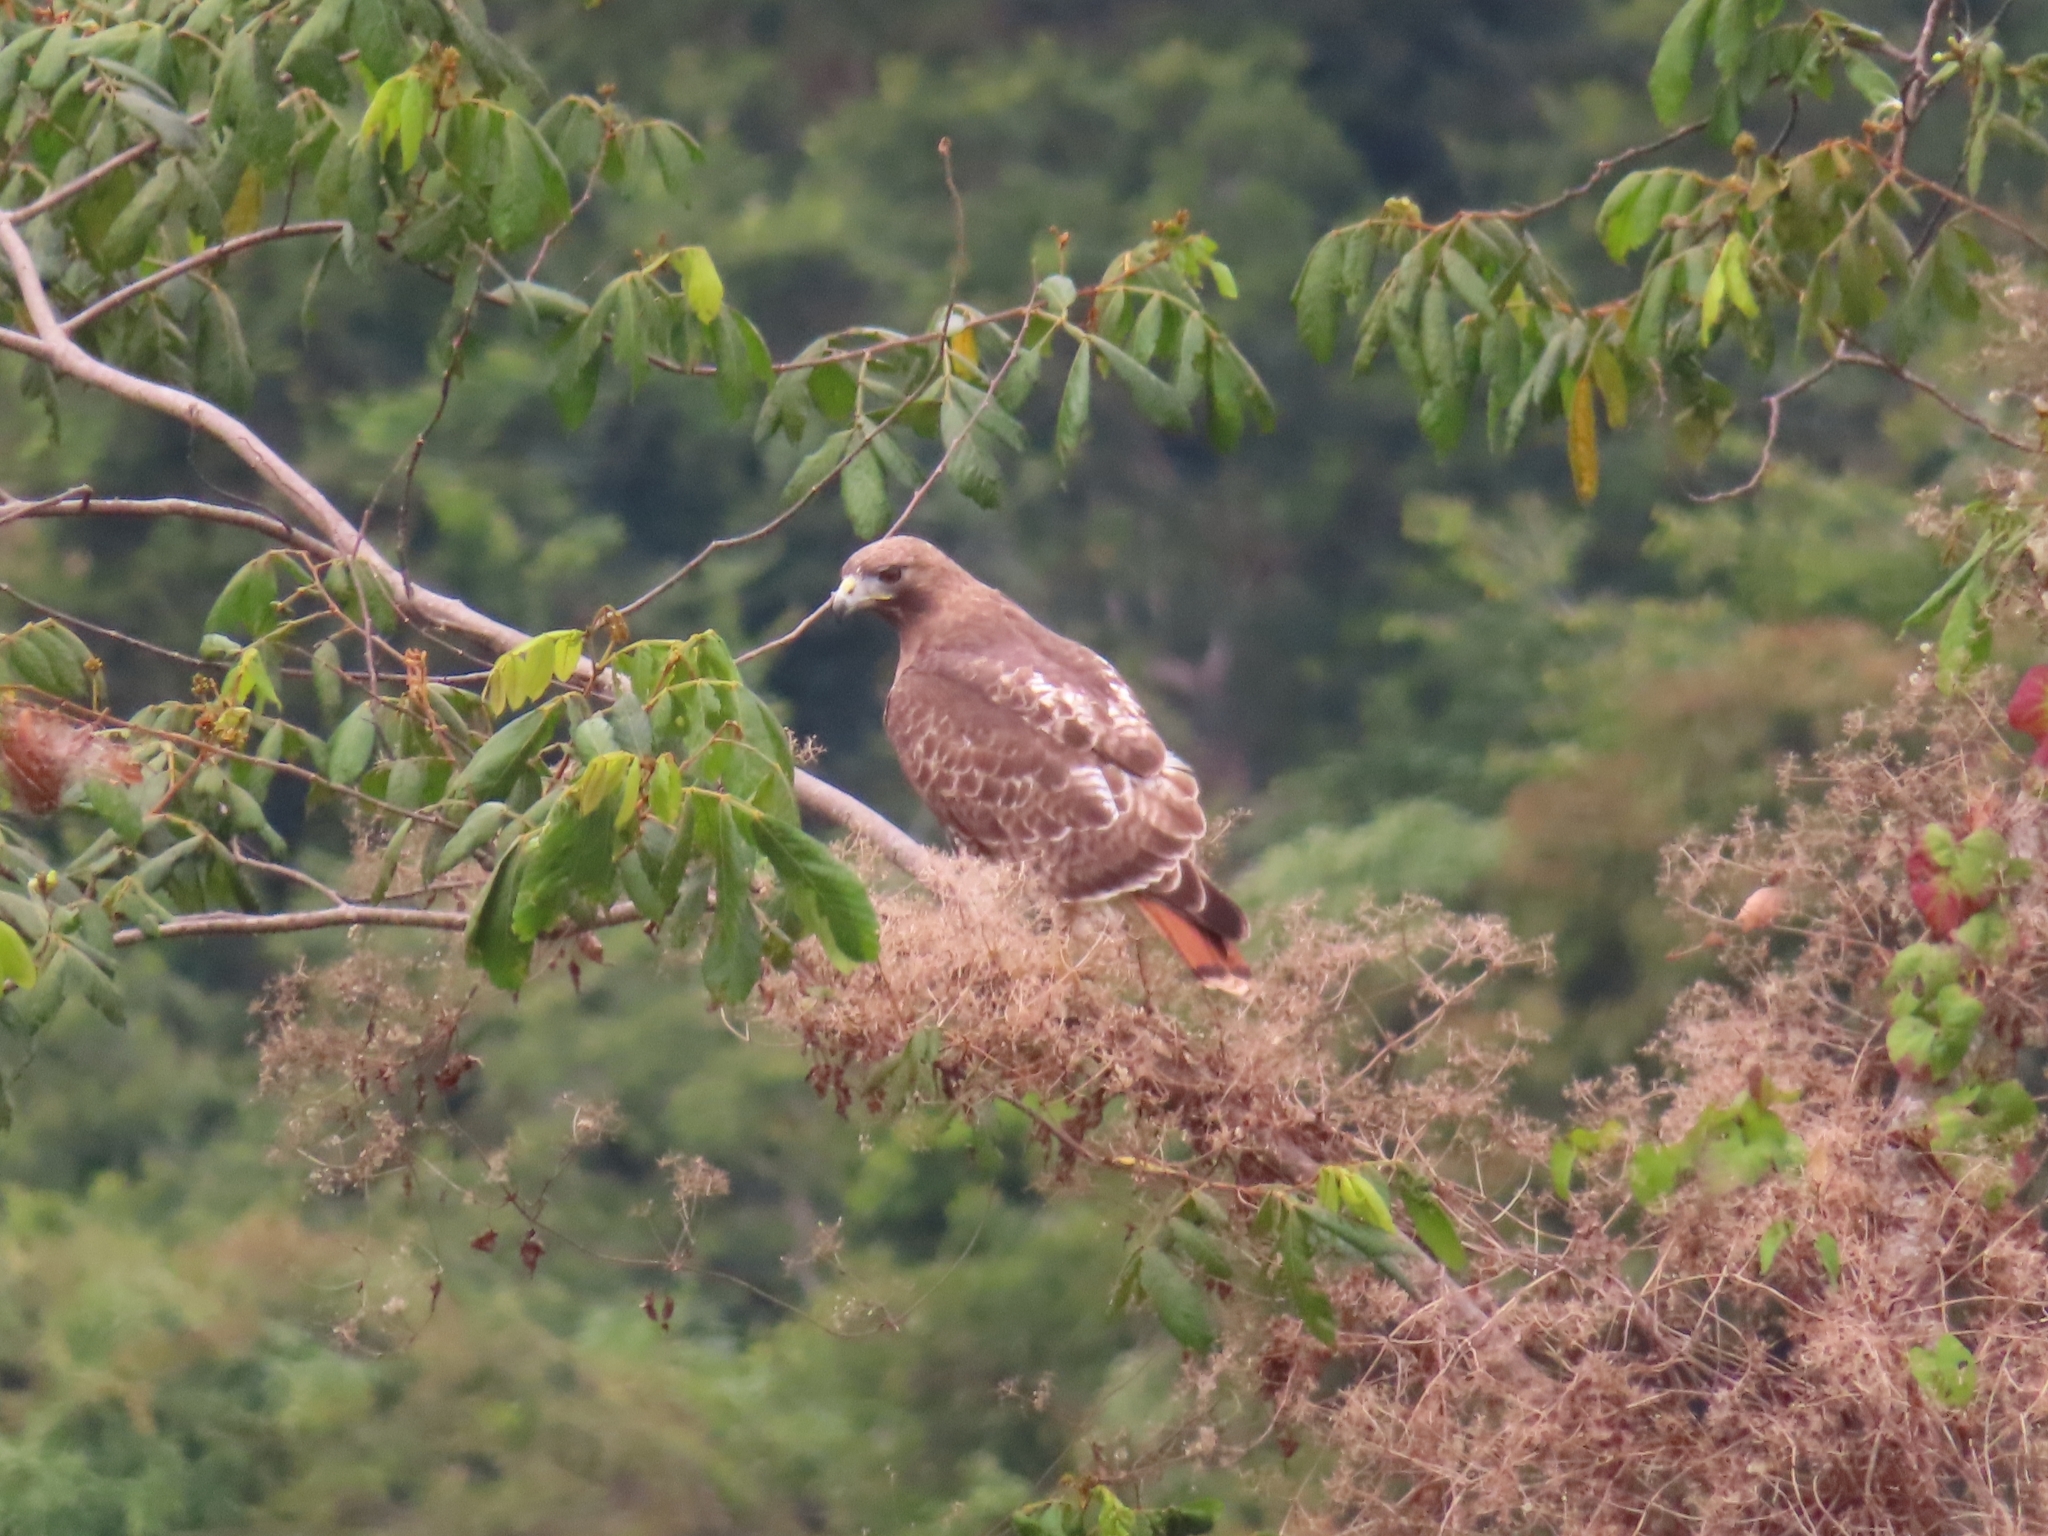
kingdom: Animalia
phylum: Chordata
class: Aves
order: Accipitriformes
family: Accipitridae
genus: Buteo
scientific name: Buteo jamaicensis
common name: Red-tailed hawk
